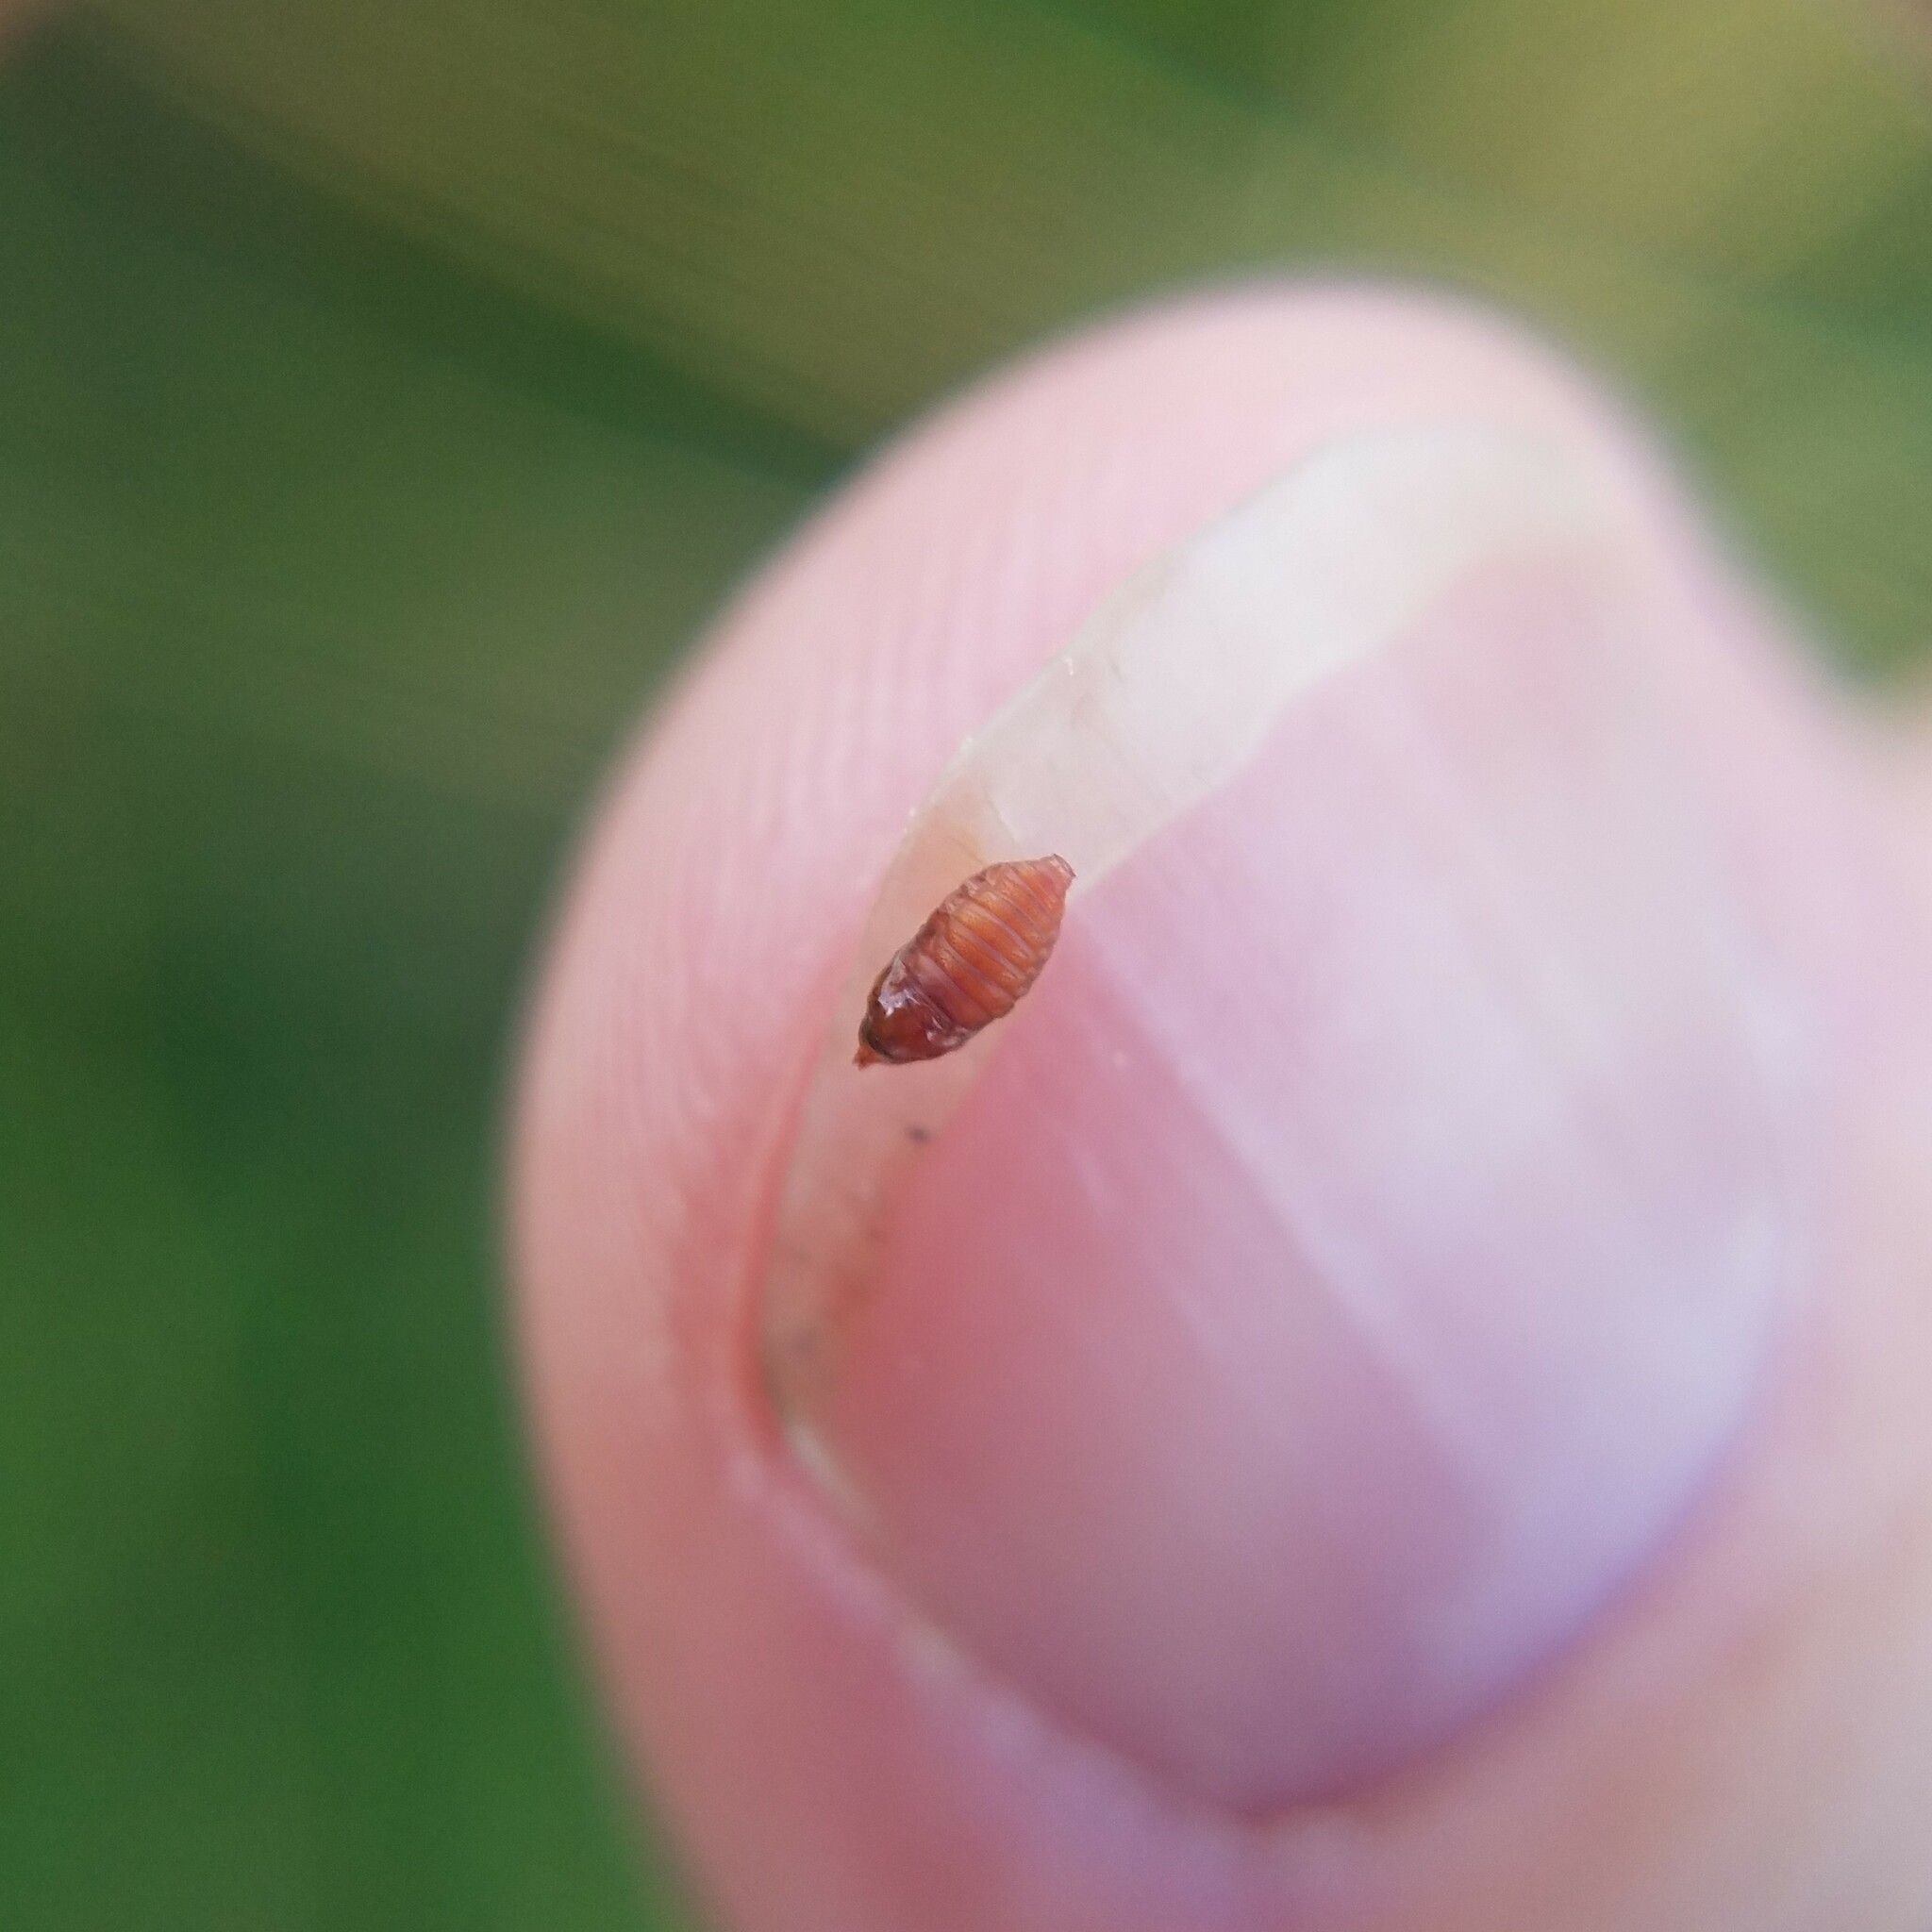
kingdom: Animalia
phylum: Arthropoda
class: Insecta
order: Diptera
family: Cecidomyiidae
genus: Asphondylia
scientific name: Asphondylia solidaginis
